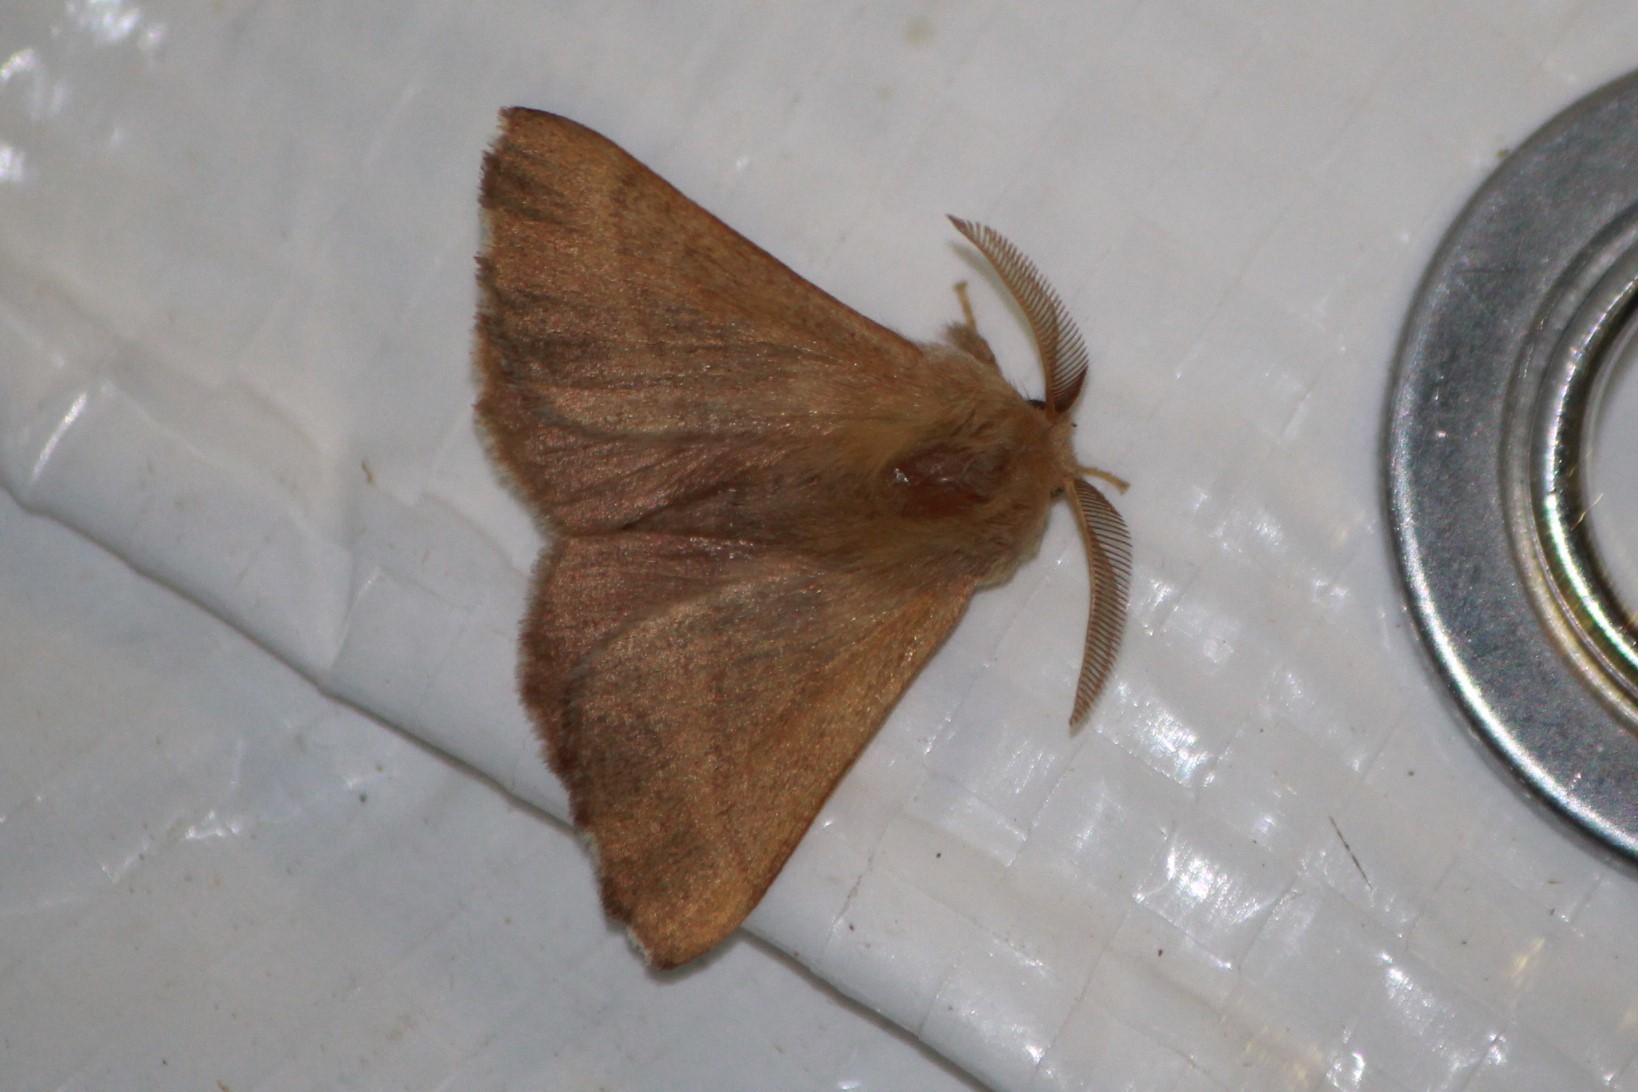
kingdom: Animalia
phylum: Arthropoda
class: Insecta
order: Lepidoptera
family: Lasiocampidae
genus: Malacosoma
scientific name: Malacosoma disstria
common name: Forest tent caterpillar
